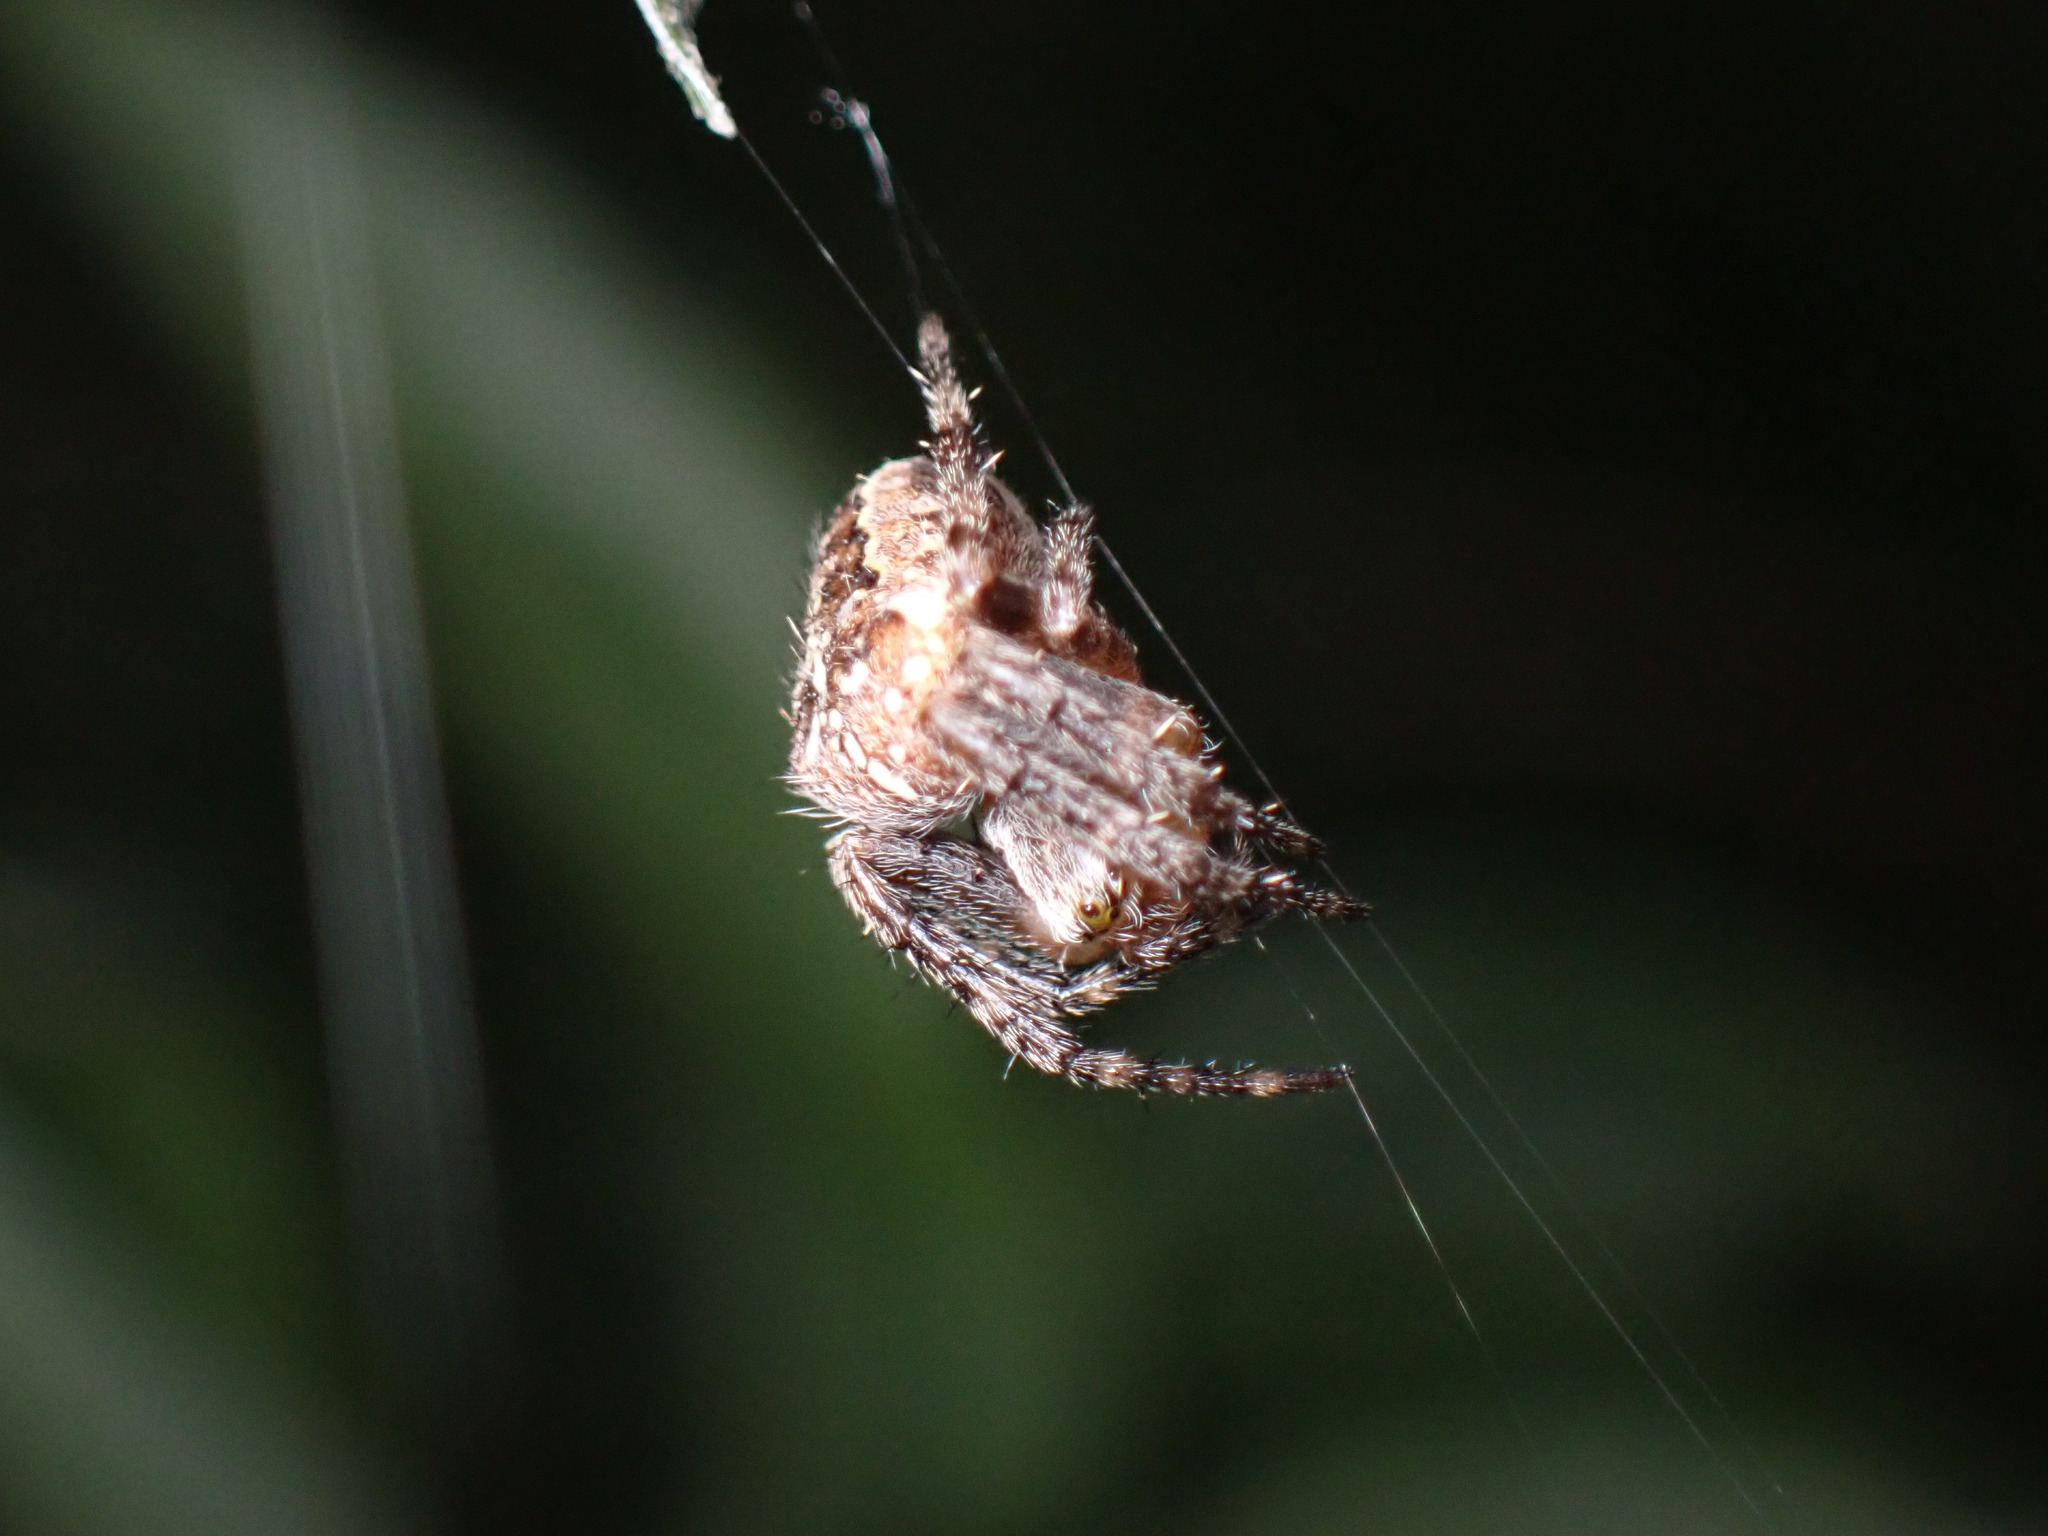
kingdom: Animalia
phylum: Arthropoda
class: Arachnida
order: Araneae
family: Araneidae
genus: Araneus
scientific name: Araneus diadematus
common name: Cross orbweaver
